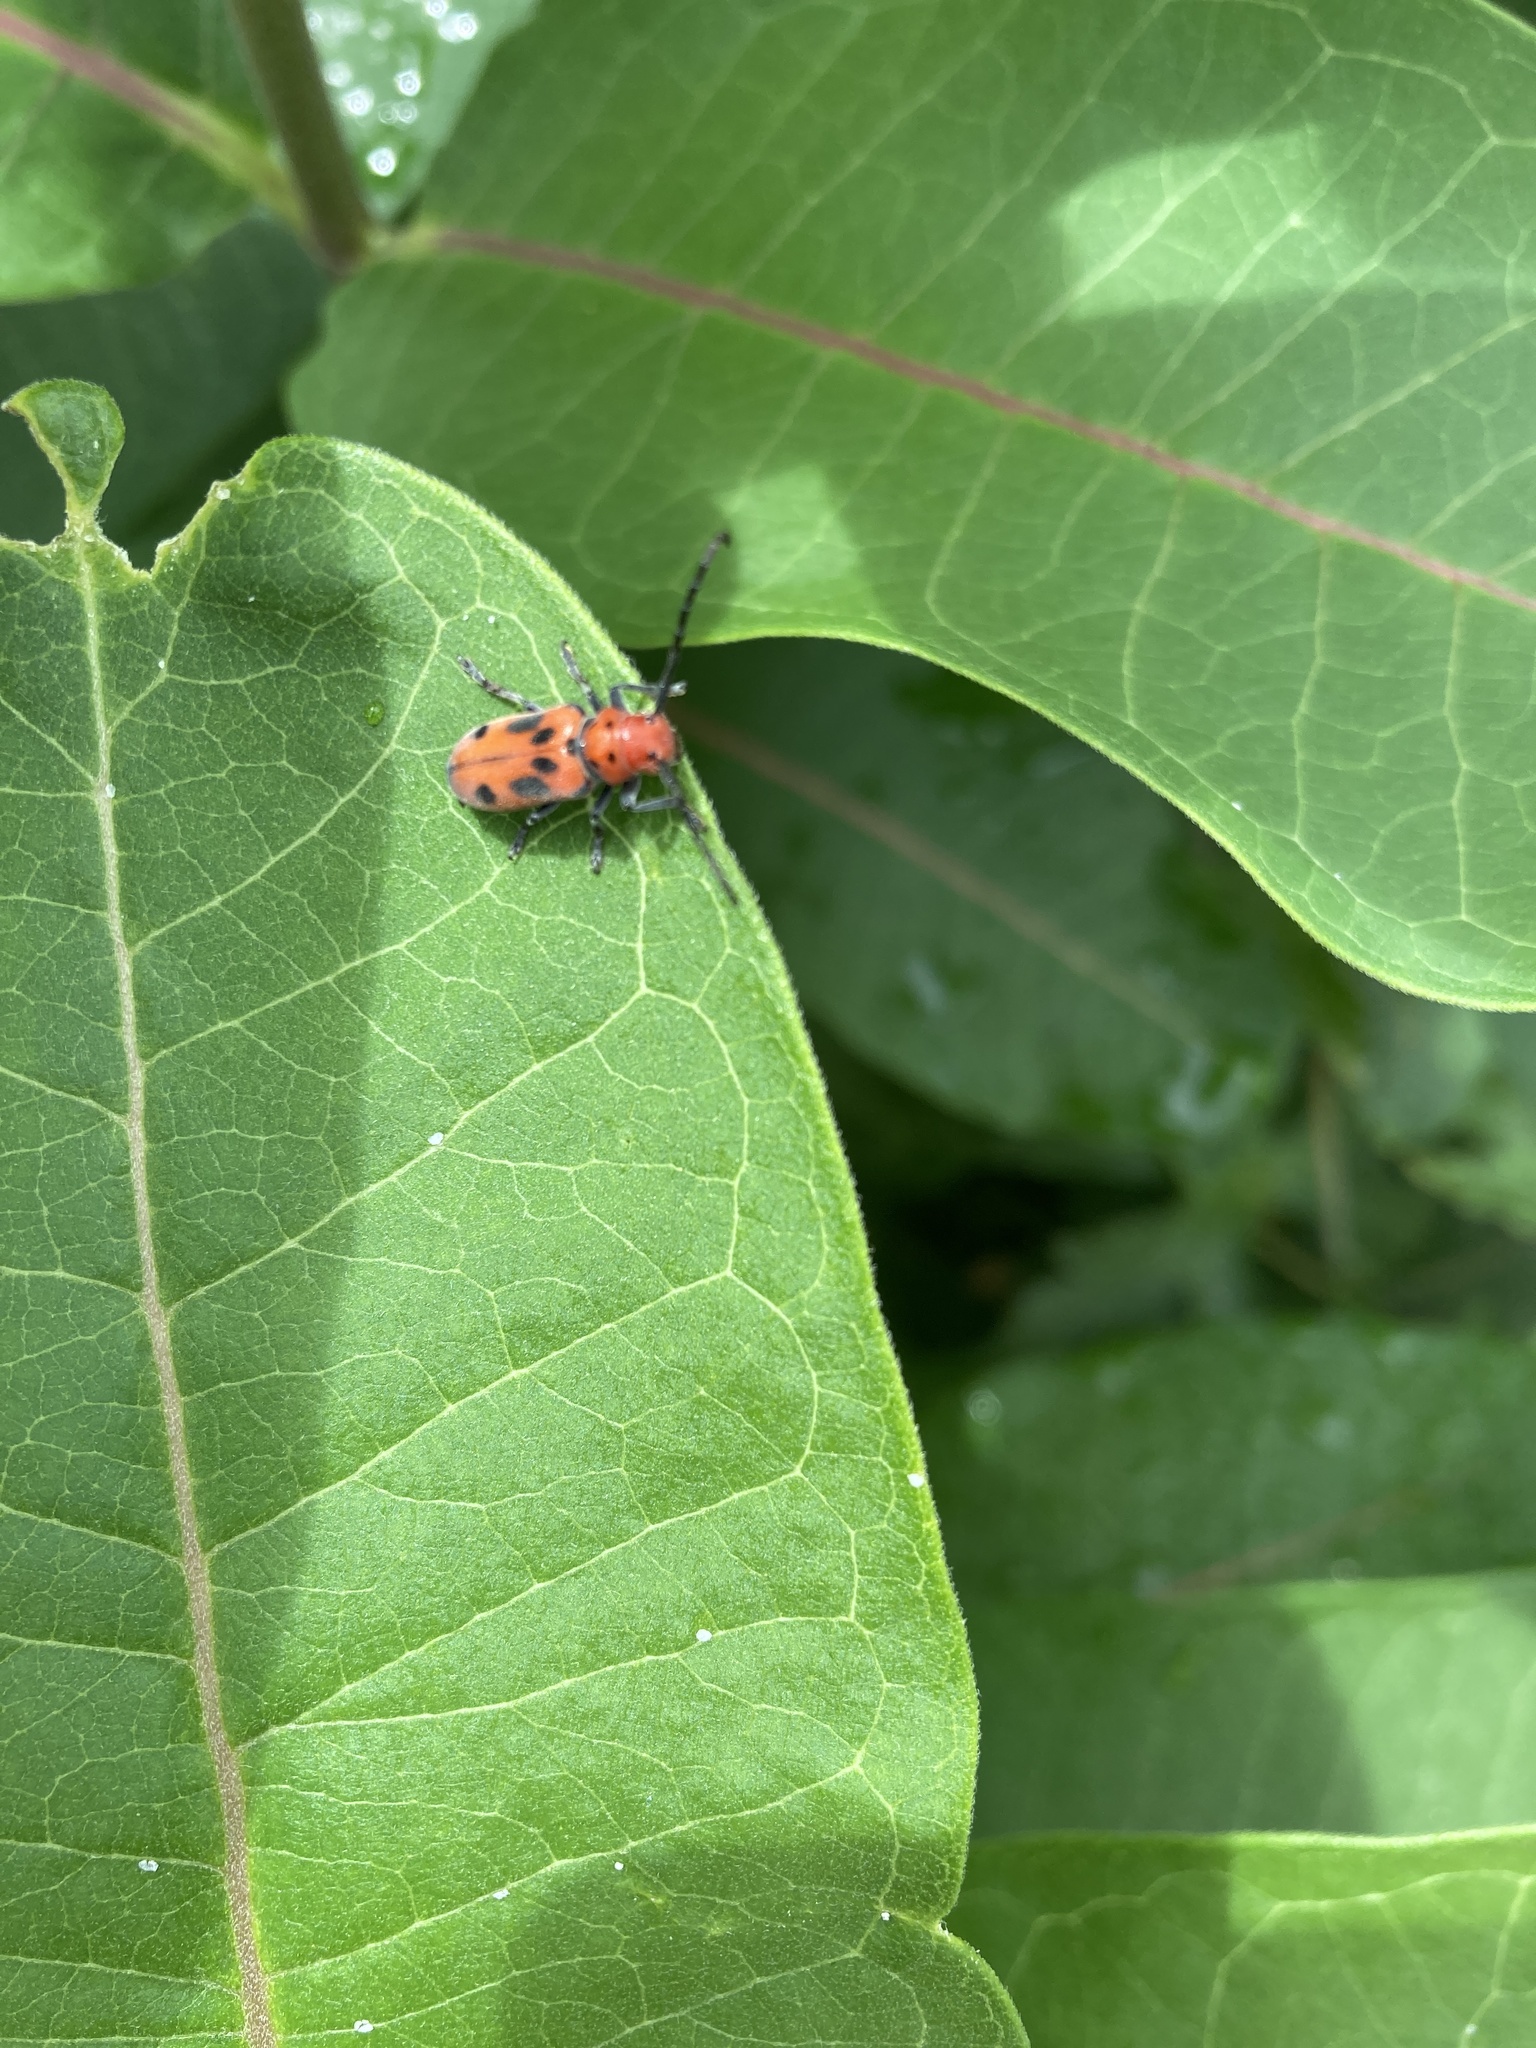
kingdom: Animalia
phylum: Arthropoda
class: Insecta
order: Coleoptera
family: Cerambycidae
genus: Tetraopes
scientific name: Tetraopes tetrophthalmus
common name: Red milkweed beetle
